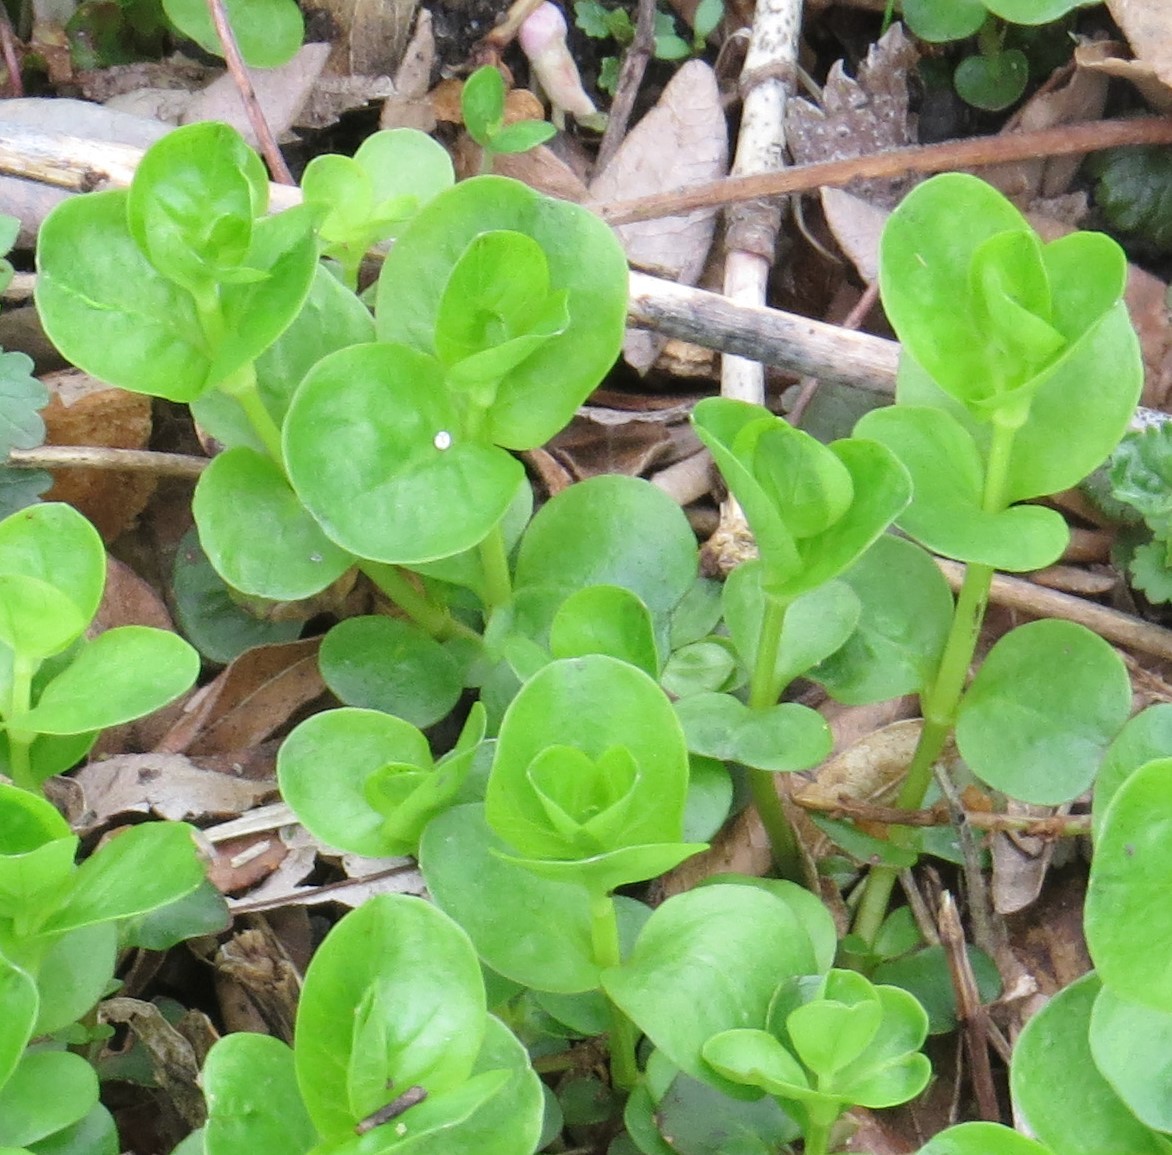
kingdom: Plantae
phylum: Tracheophyta
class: Magnoliopsida
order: Ericales
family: Primulaceae
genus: Lysimachia
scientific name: Lysimachia nummularia
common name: Moneywort
